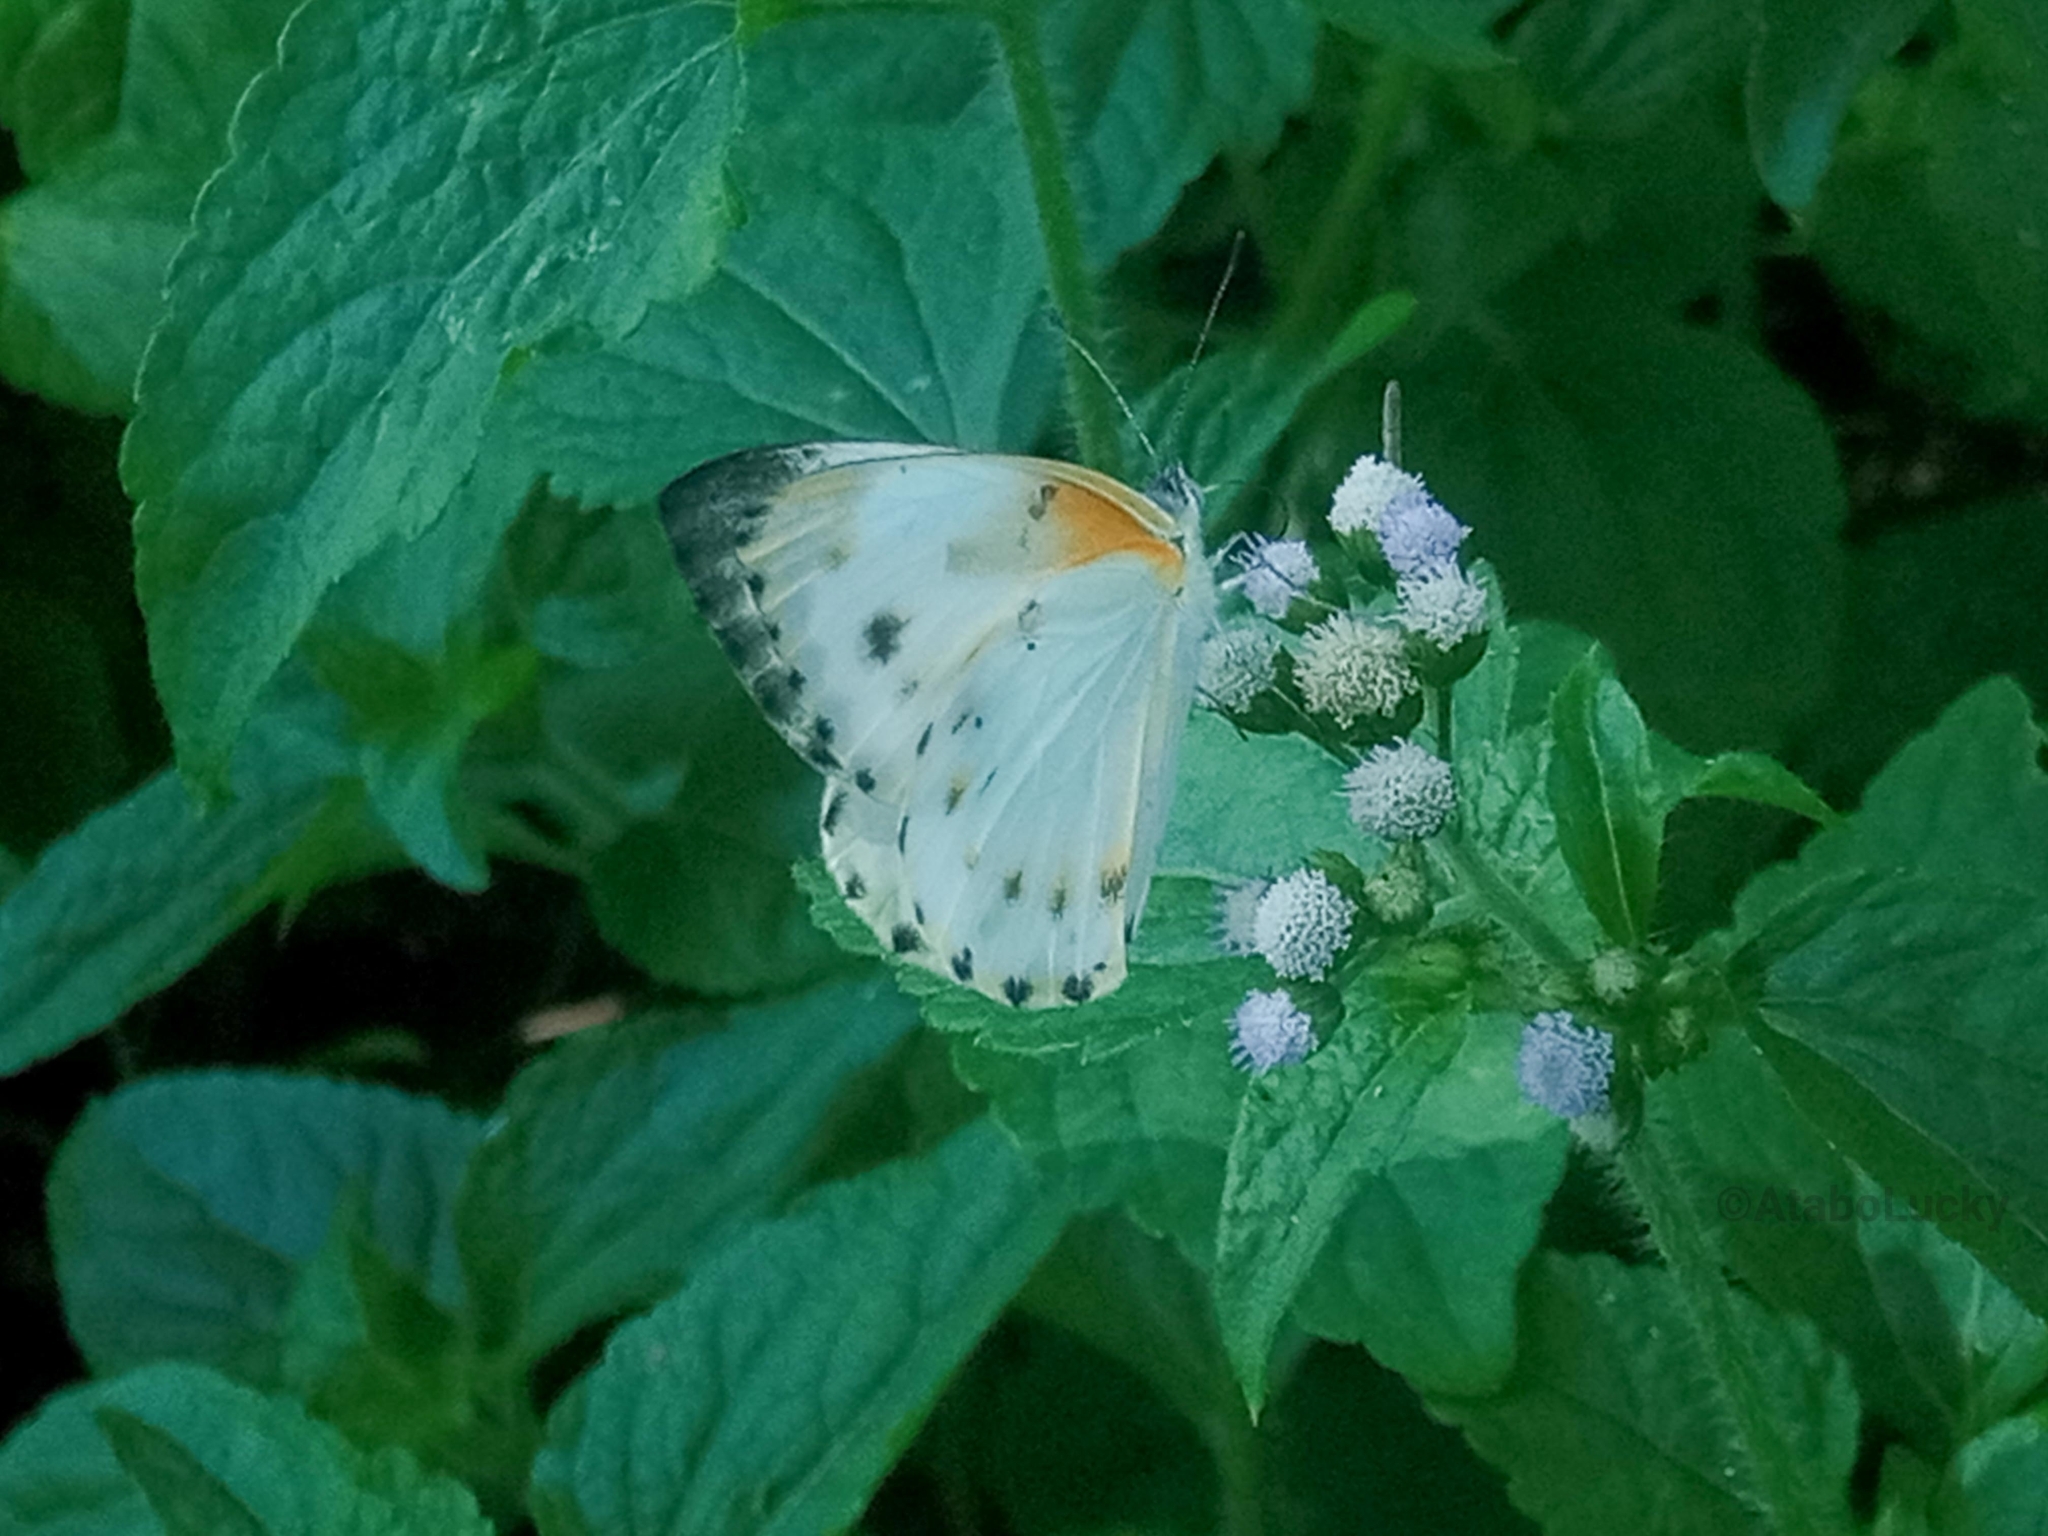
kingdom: Animalia
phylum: Arthropoda
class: Insecta
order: Lepidoptera
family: Pieridae
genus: Dixeia
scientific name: Dixeia orbona
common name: Creamy small white
